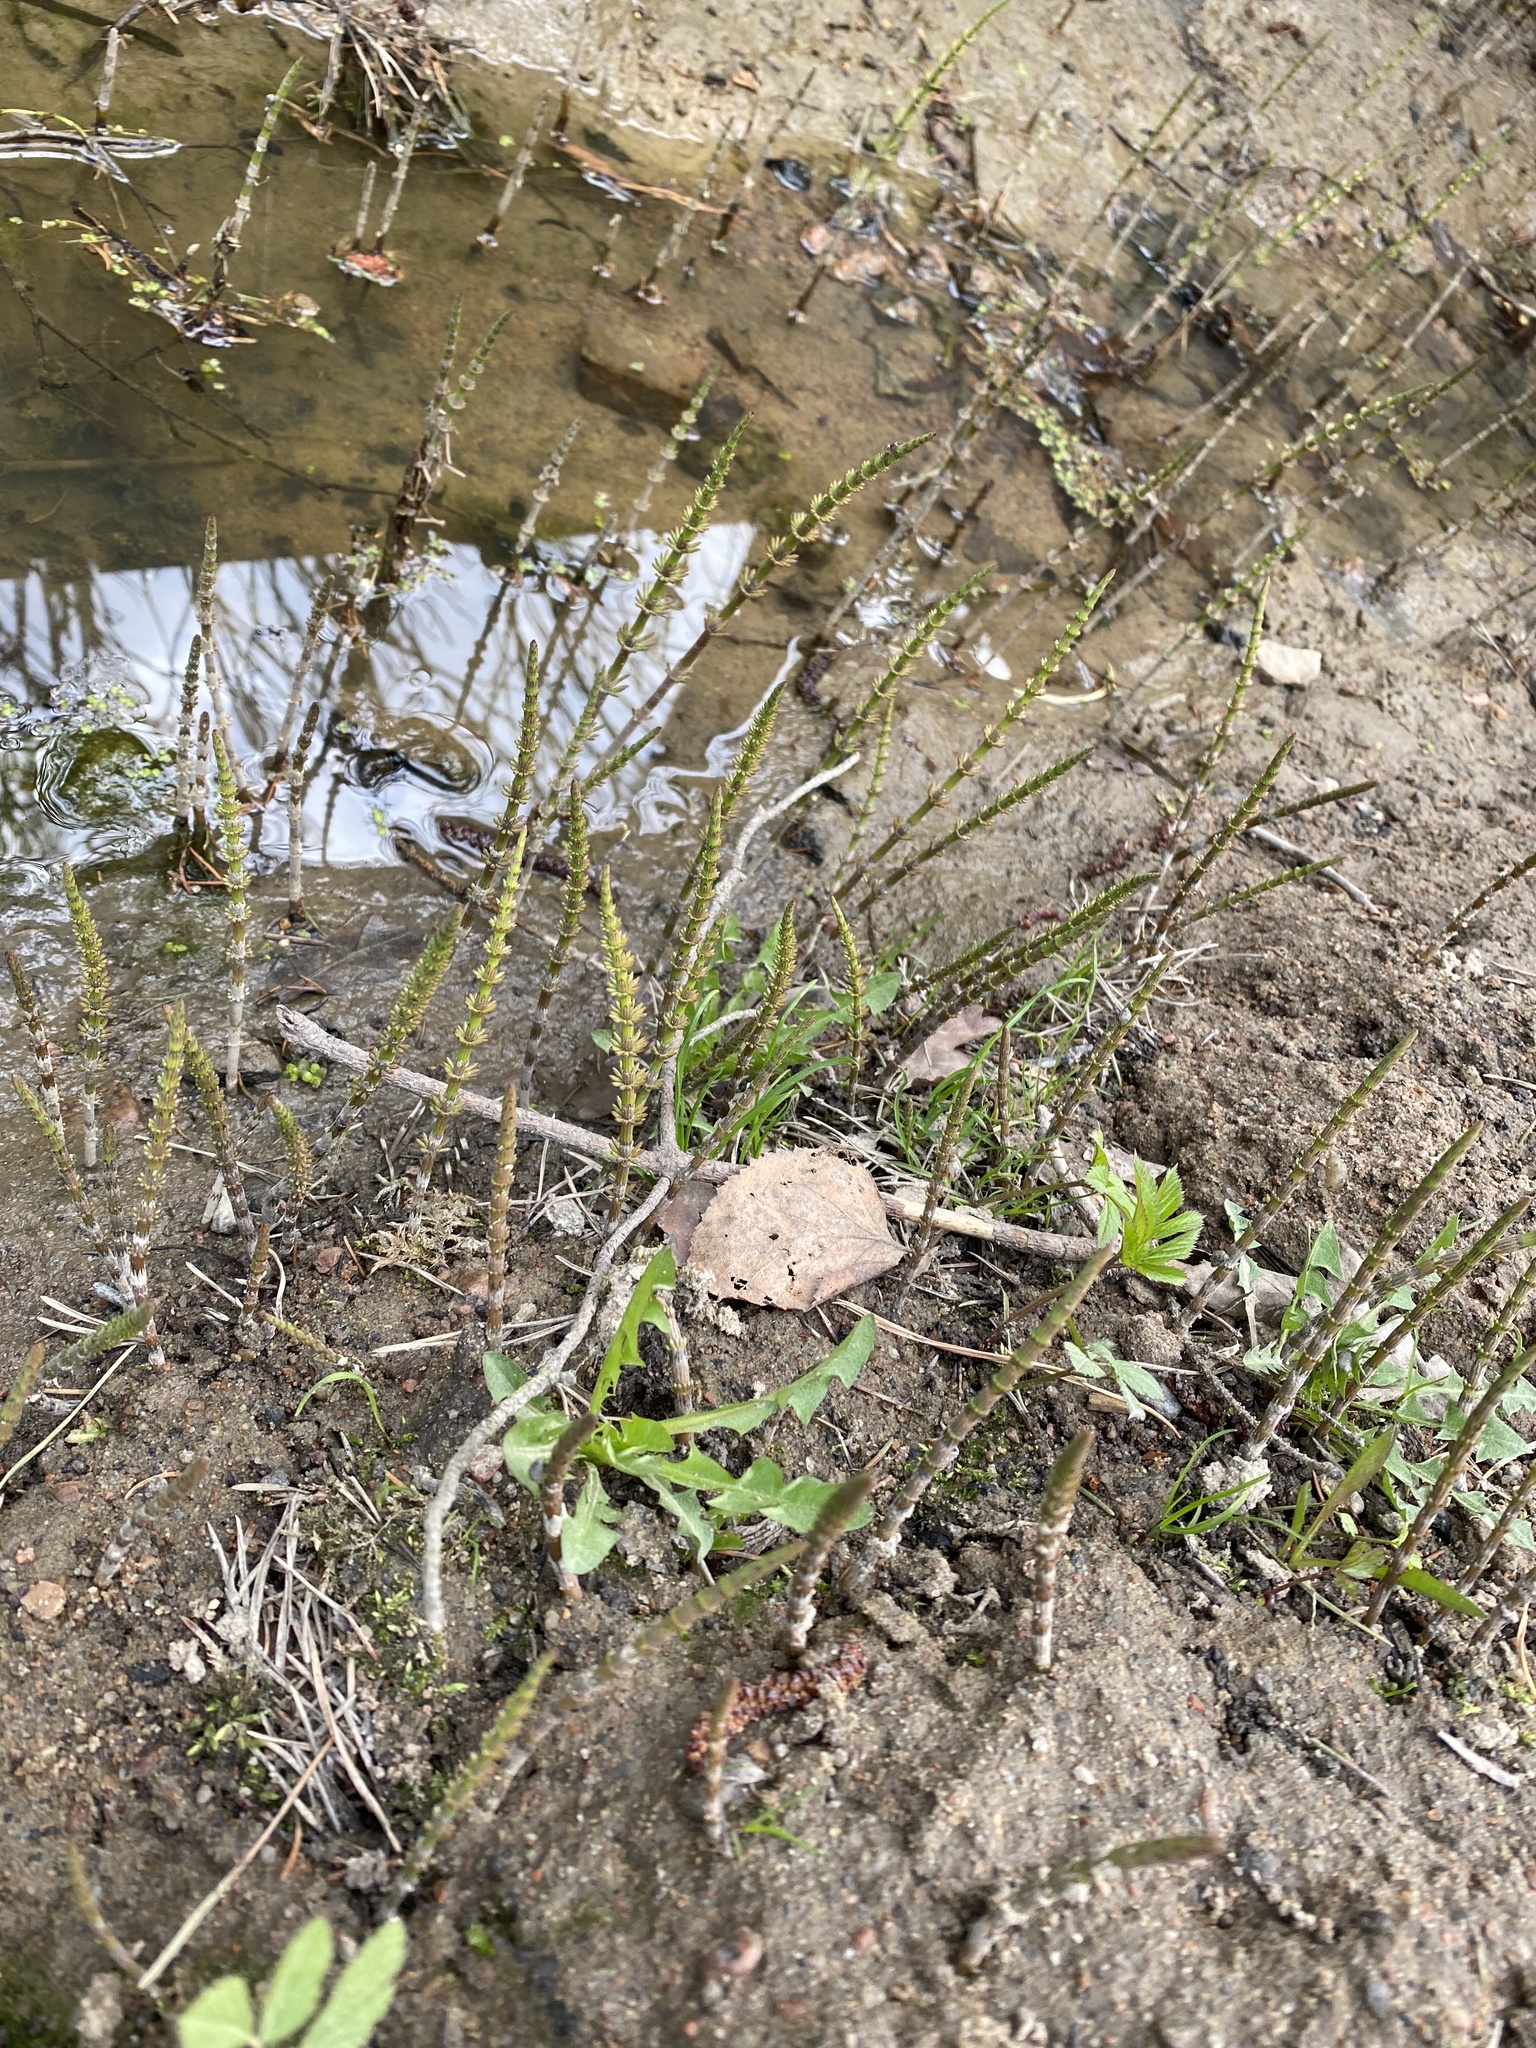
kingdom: Plantae
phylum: Tracheophyta
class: Polypodiopsida
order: Equisetales
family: Equisetaceae
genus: Equisetum
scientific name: Equisetum fluviatile
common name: Water horsetail
